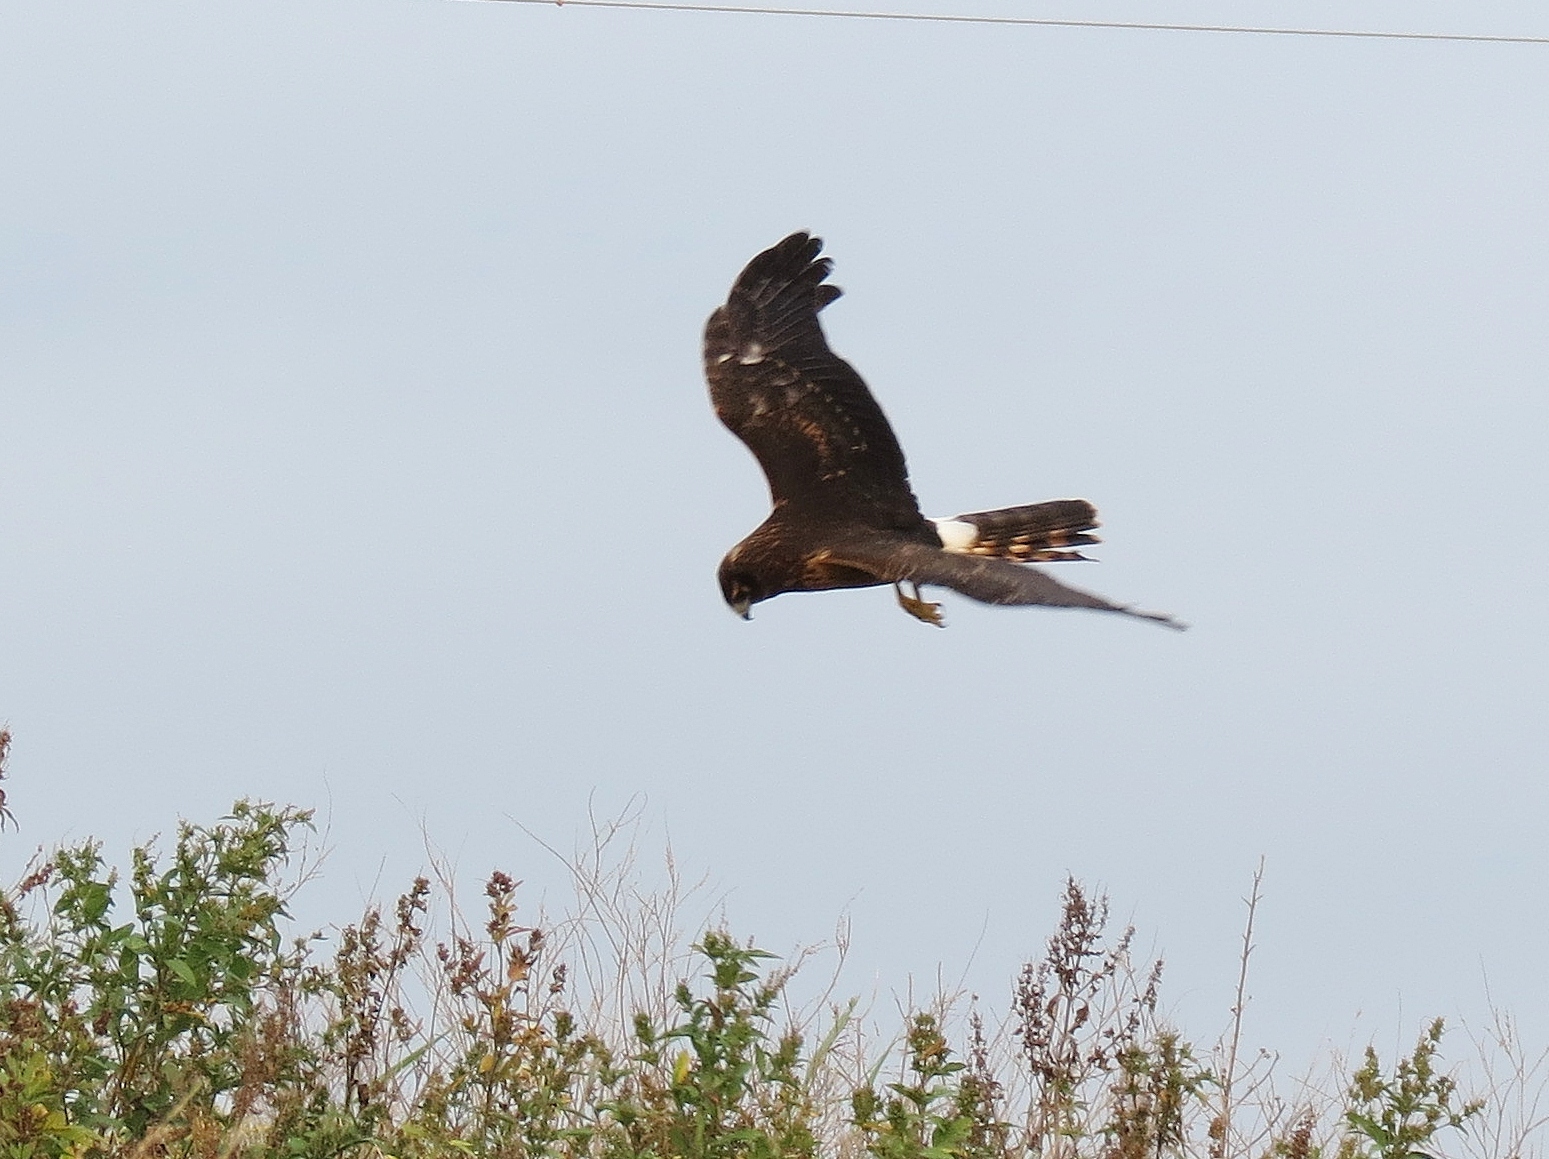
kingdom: Animalia
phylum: Chordata
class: Aves
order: Accipitriformes
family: Accipitridae
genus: Circus
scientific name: Circus cyaneus
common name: Hen harrier
